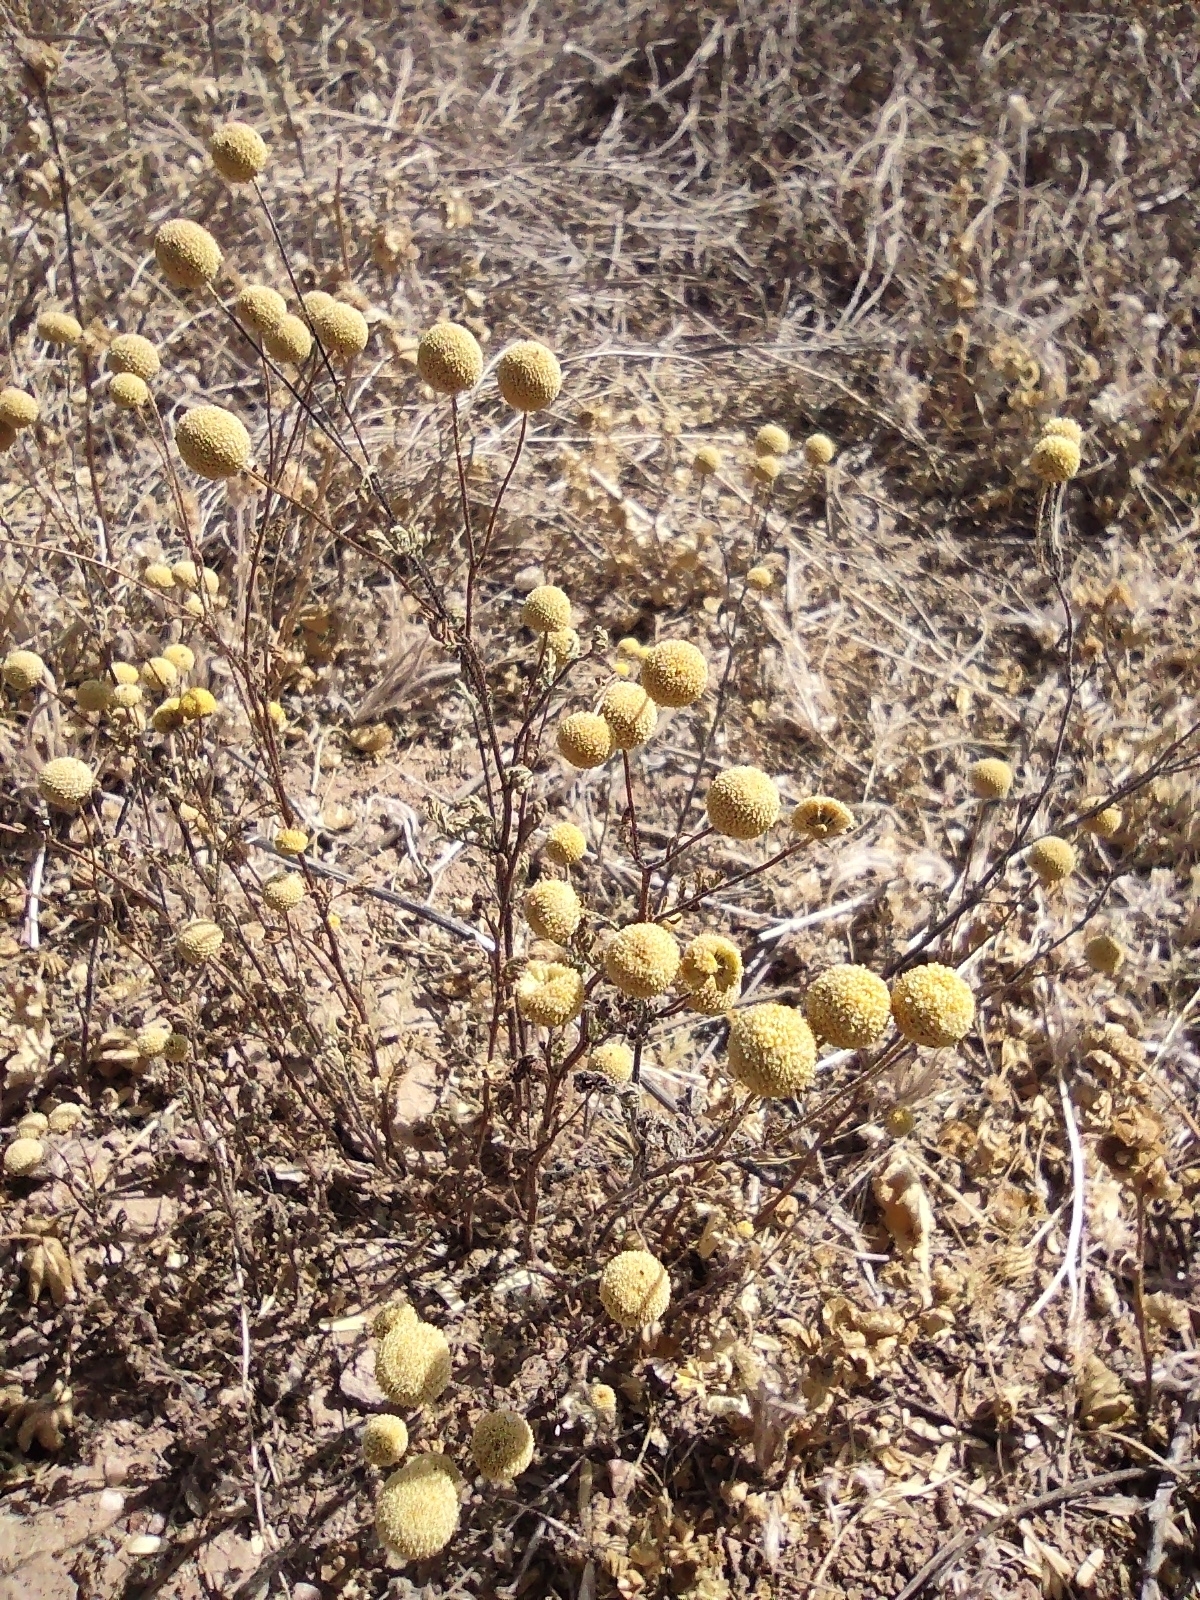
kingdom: Plantae
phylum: Tracheophyta
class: Magnoliopsida
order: Asterales
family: Asteraceae
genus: Oncosiphon
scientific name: Oncosiphon pilulifer
